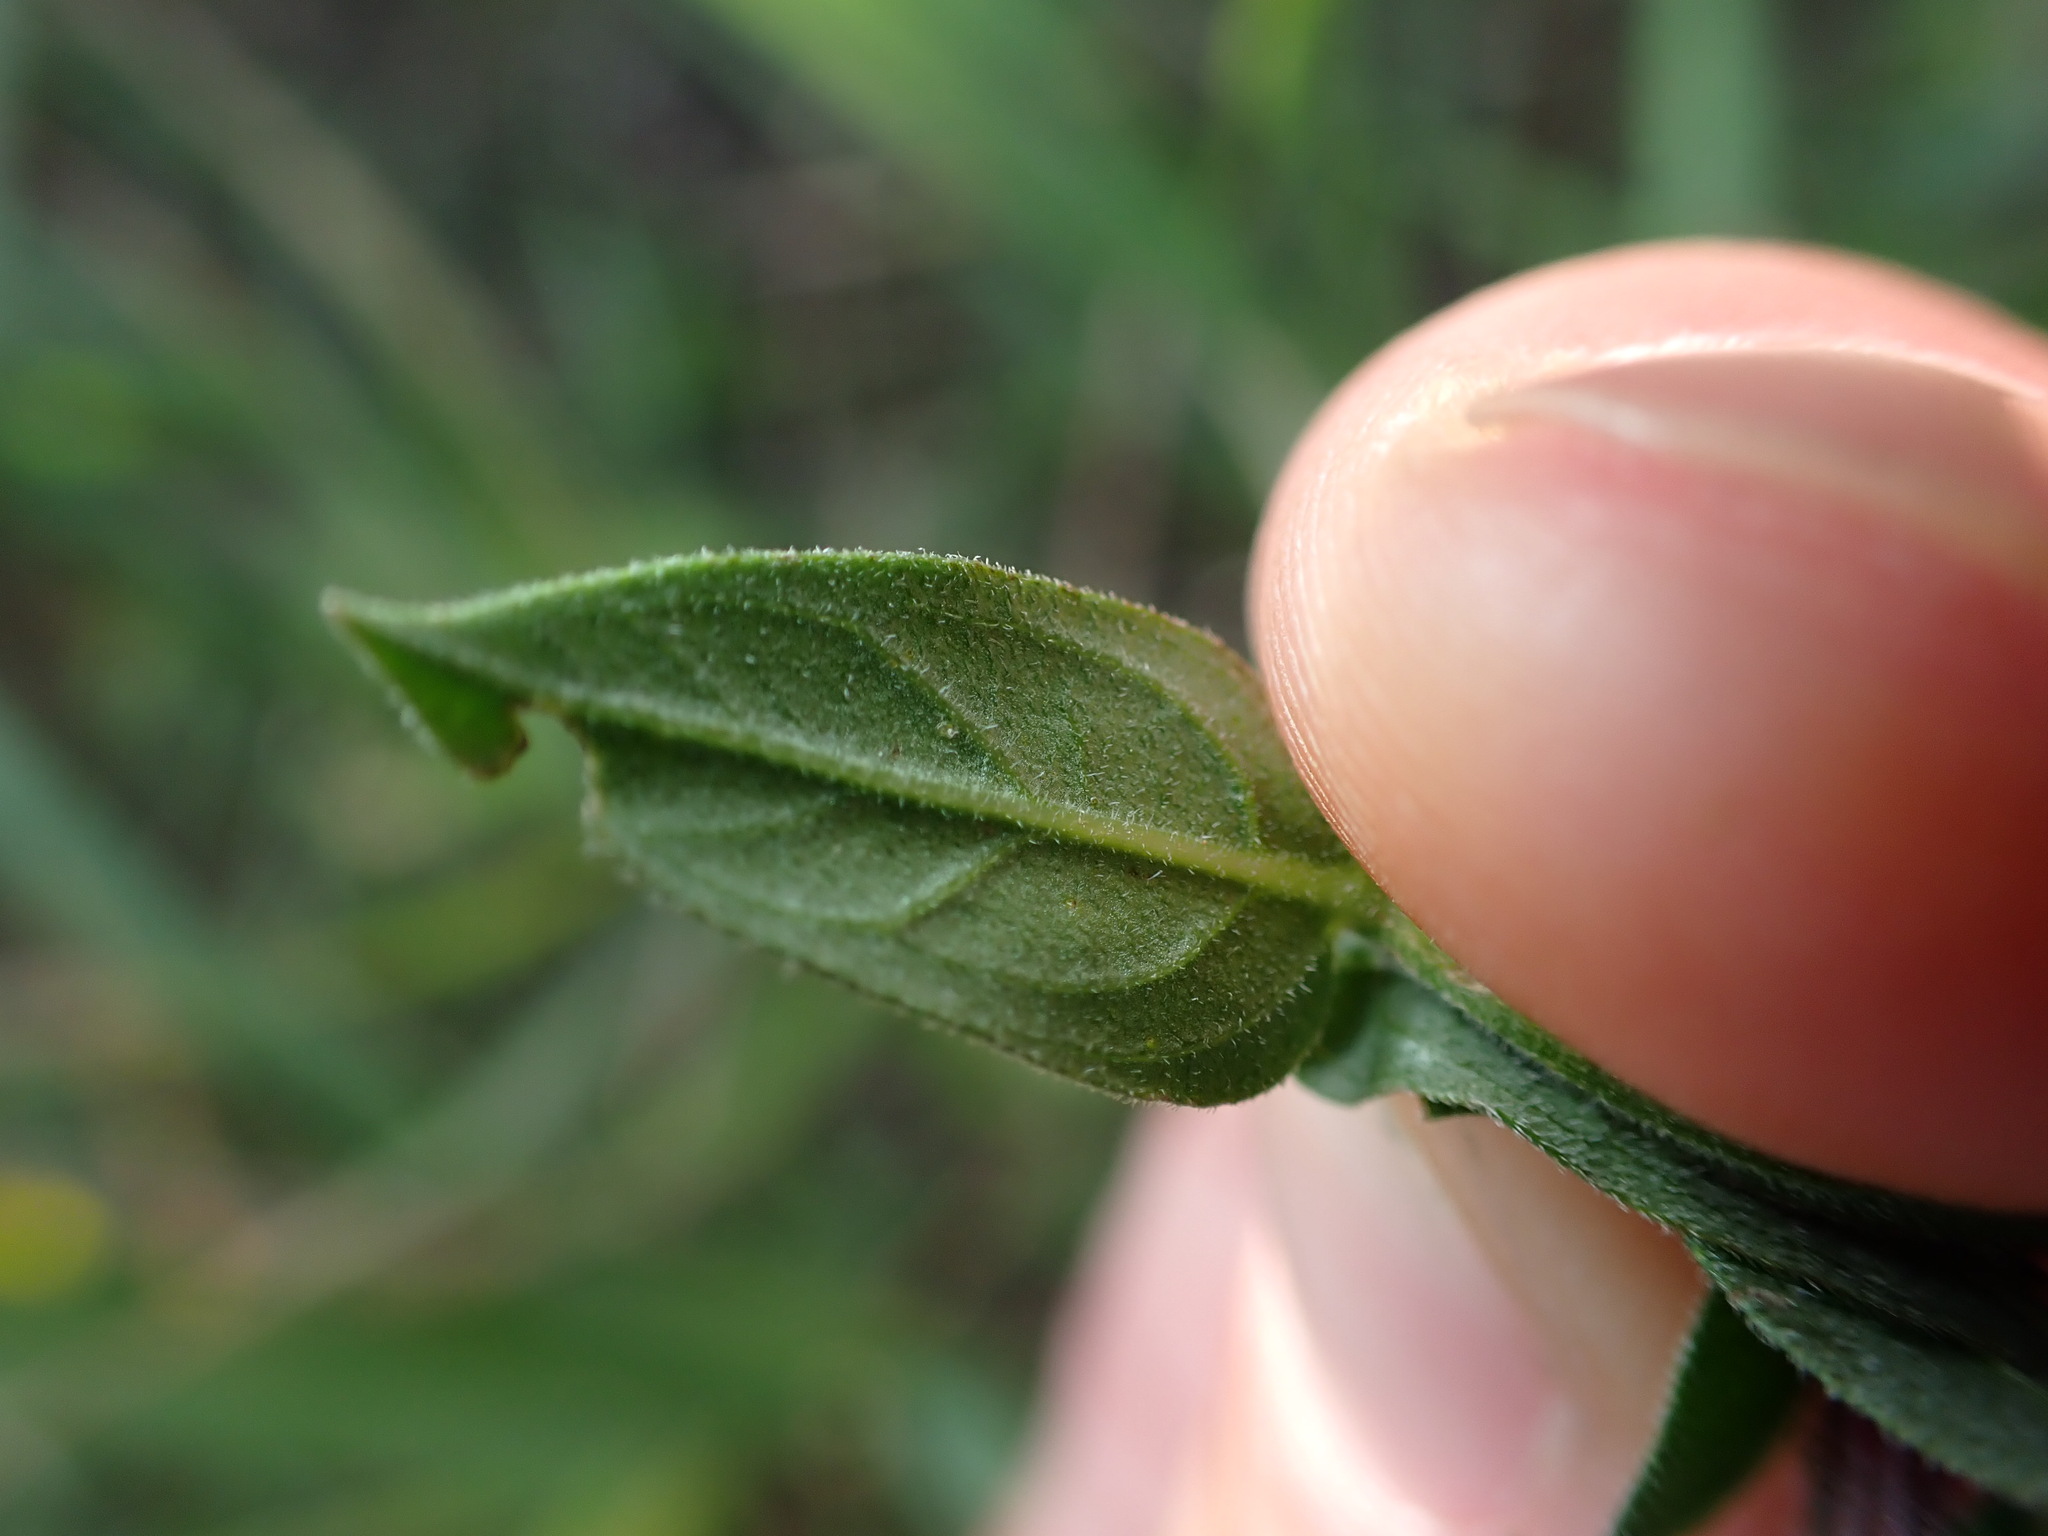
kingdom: Plantae
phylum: Tracheophyta
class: Magnoliopsida
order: Myrtales
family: Lythraceae
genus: Lythrum
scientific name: Lythrum salicaria
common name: Purple loosestrife
